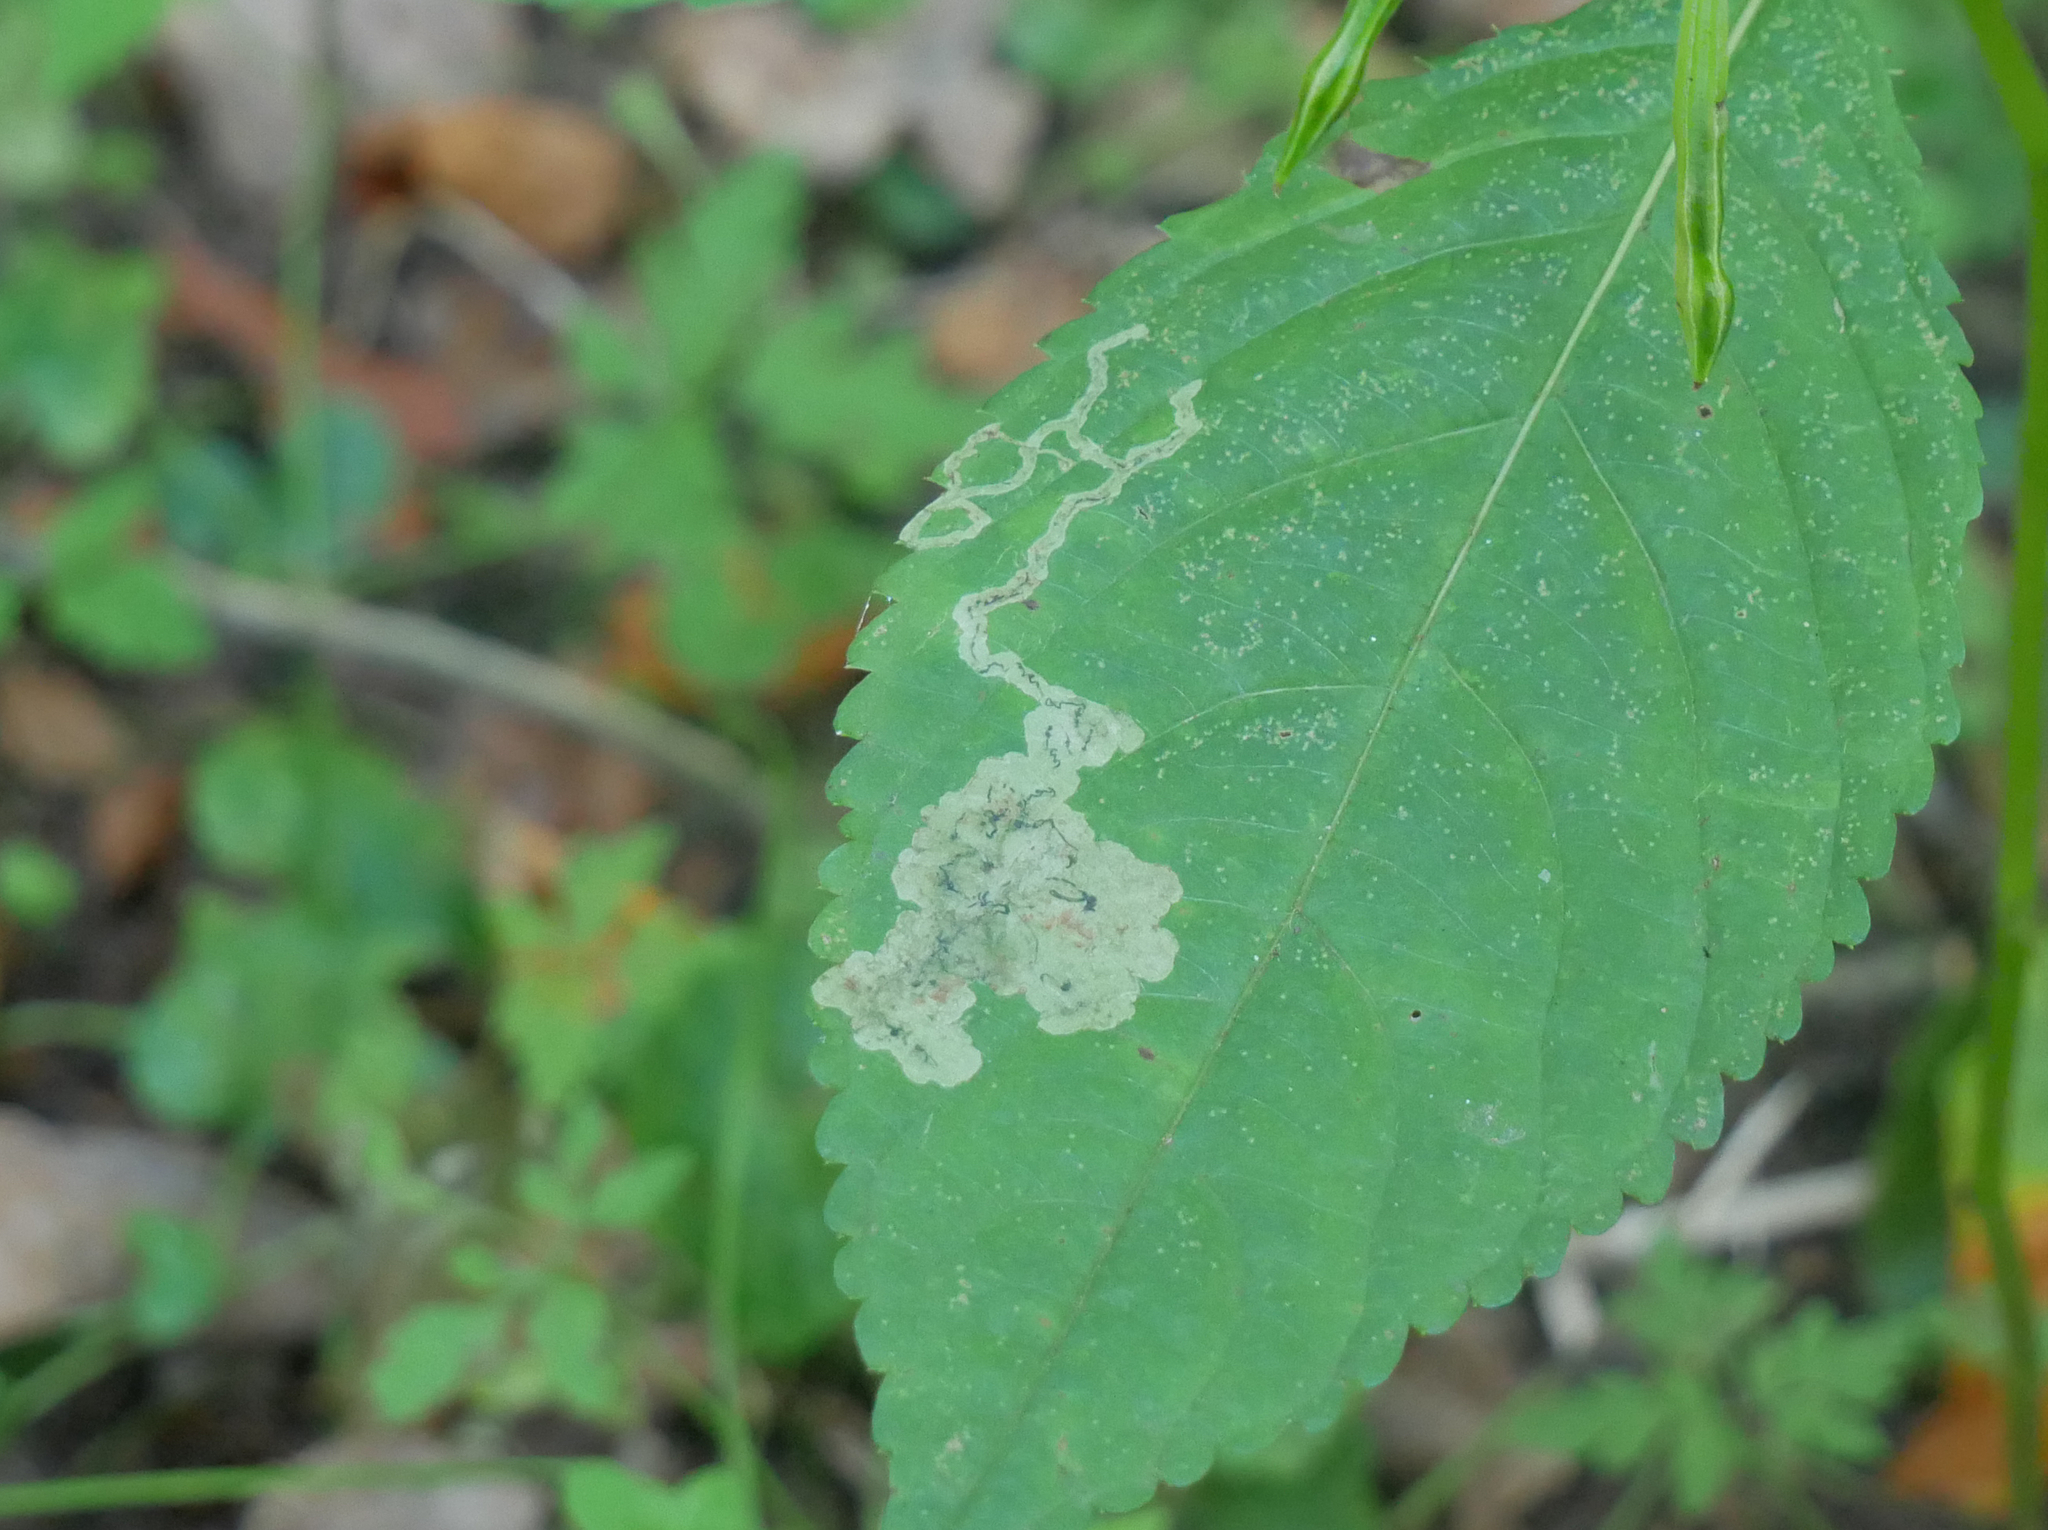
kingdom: Animalia
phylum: Arthropoda
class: Insecta
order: Diptera
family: Agromyzidae
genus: Phytoliriomyza
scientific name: Phytoliriomyza melampyga
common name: Jewelweed leaf-miner fly
